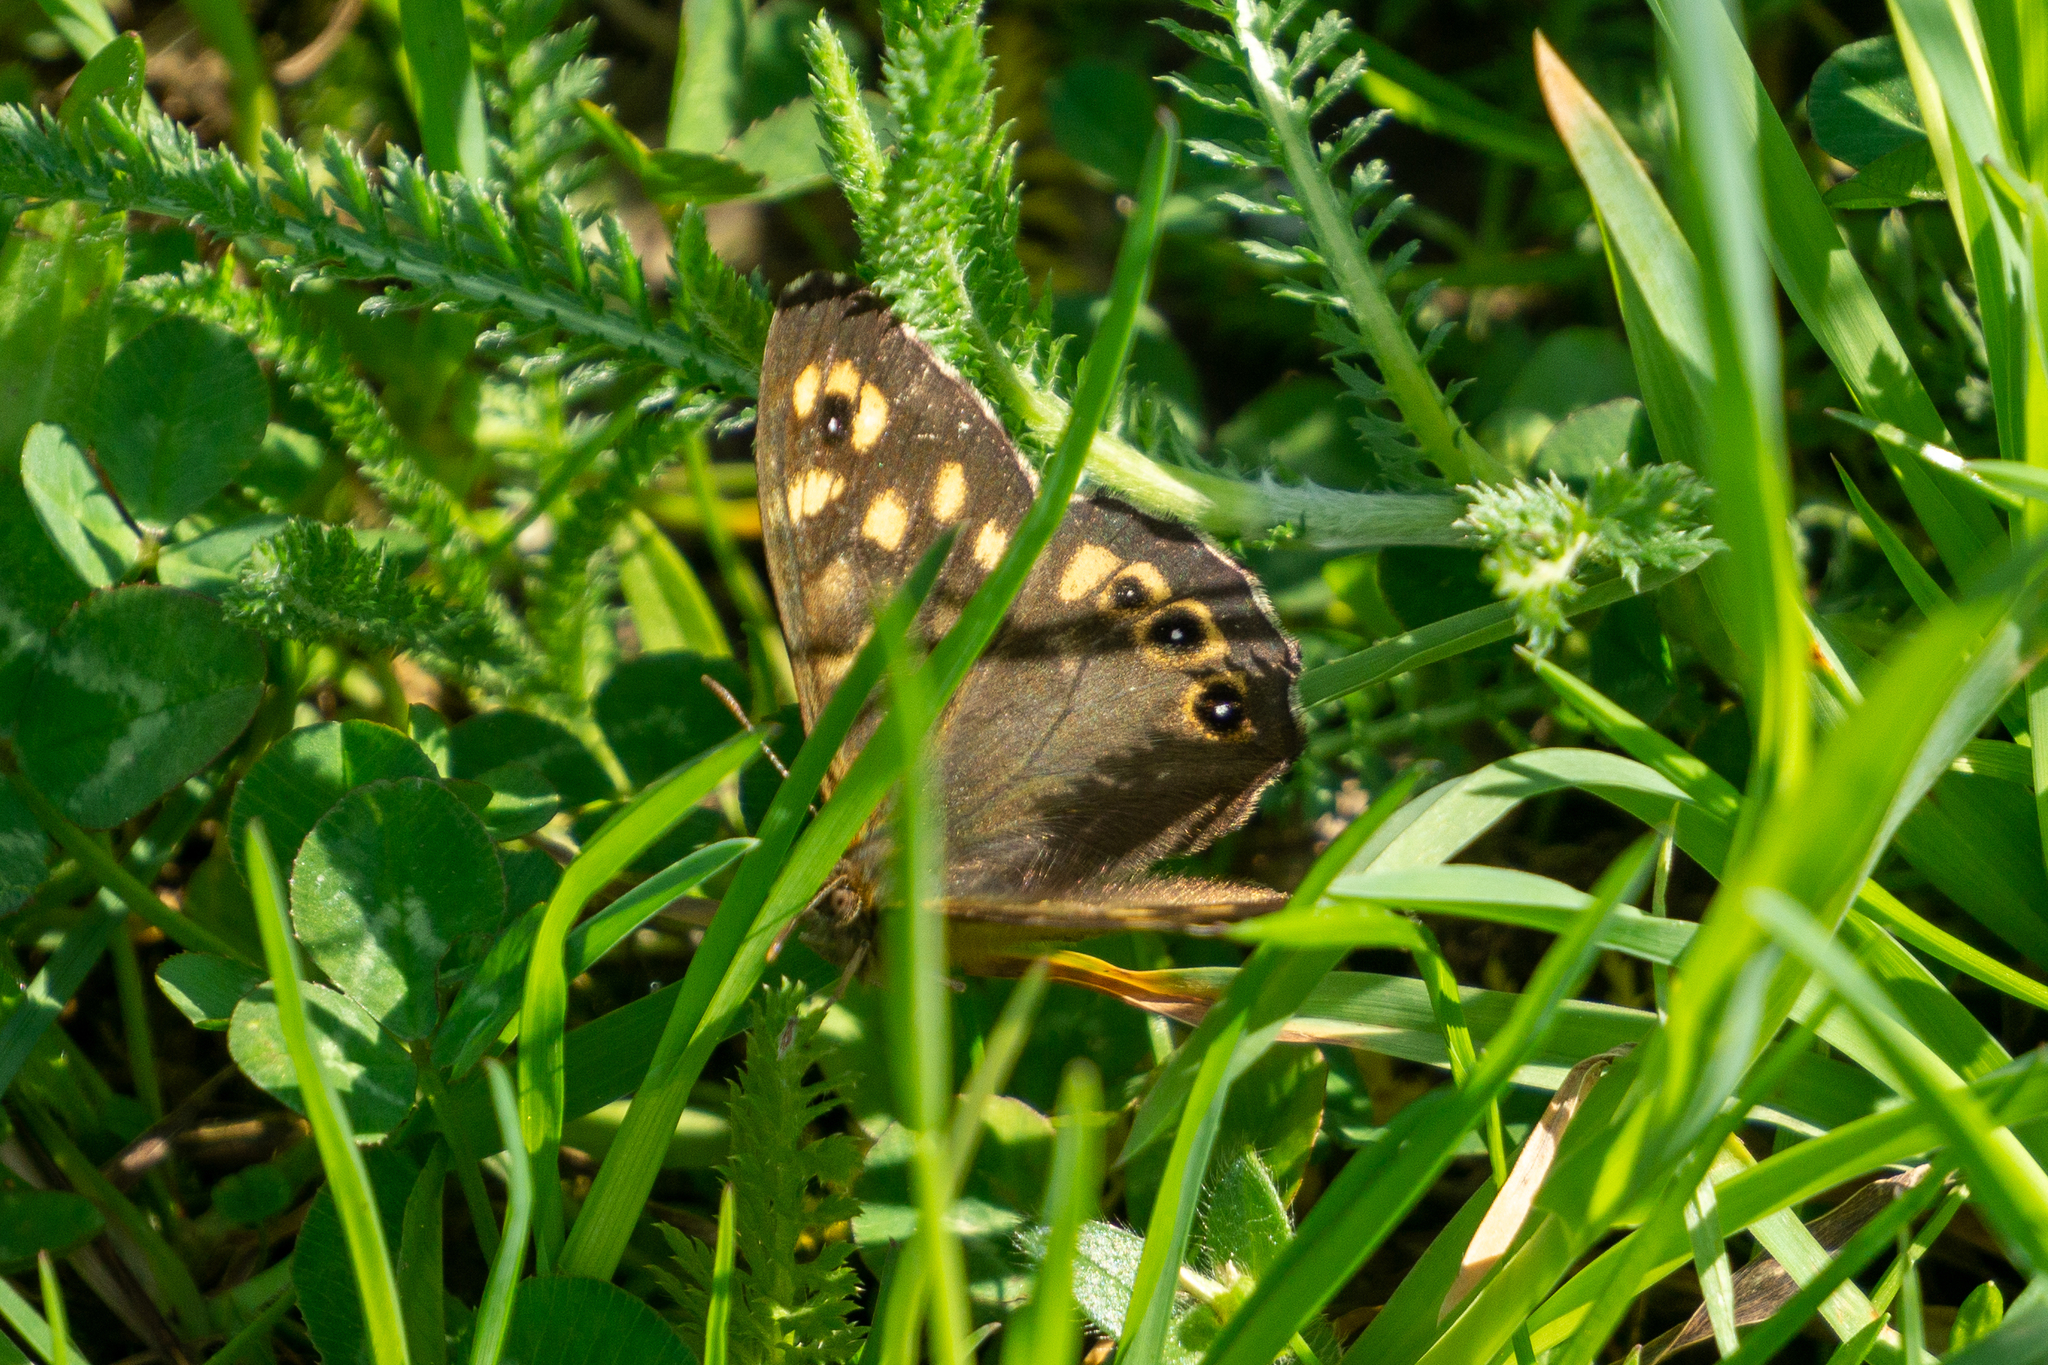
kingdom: Animalia
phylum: Arthropoda
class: Insecta
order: Lepidoptera
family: Nymphalidae
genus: Pararge
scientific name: Pararge aegeria
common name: Speckled wood
